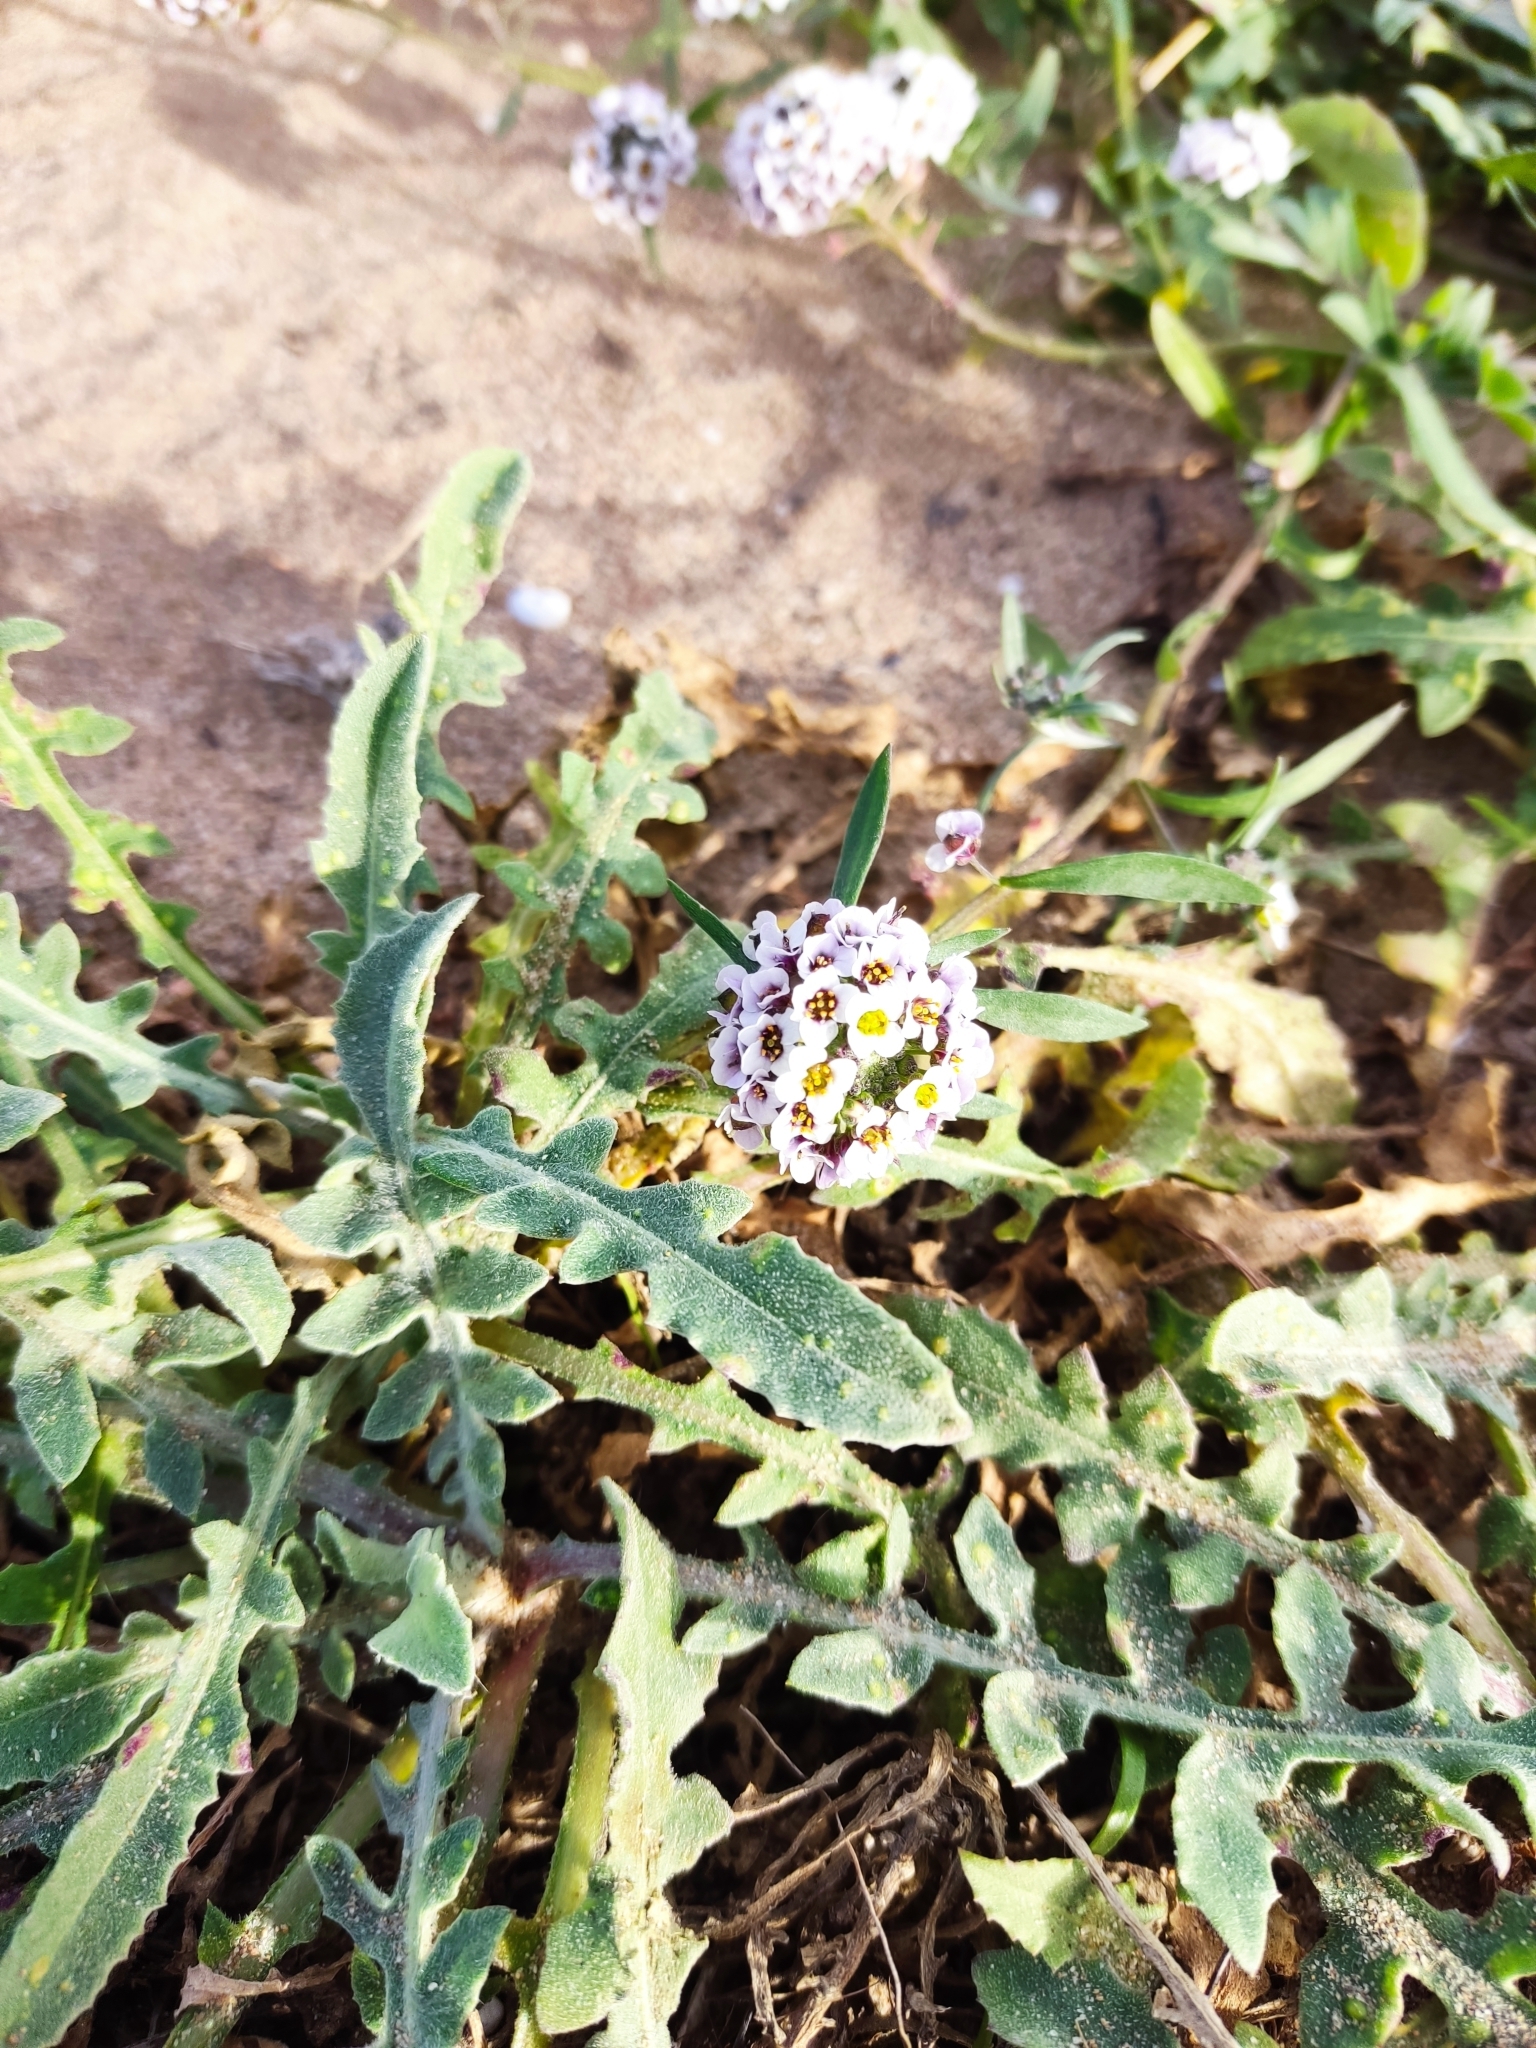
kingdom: Plantae
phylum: Tracheophyta
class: Magnoliopsida
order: Brassicales
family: Brassicaceae
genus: Lobularia
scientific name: Lobularia maritima
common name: Sweet alison
